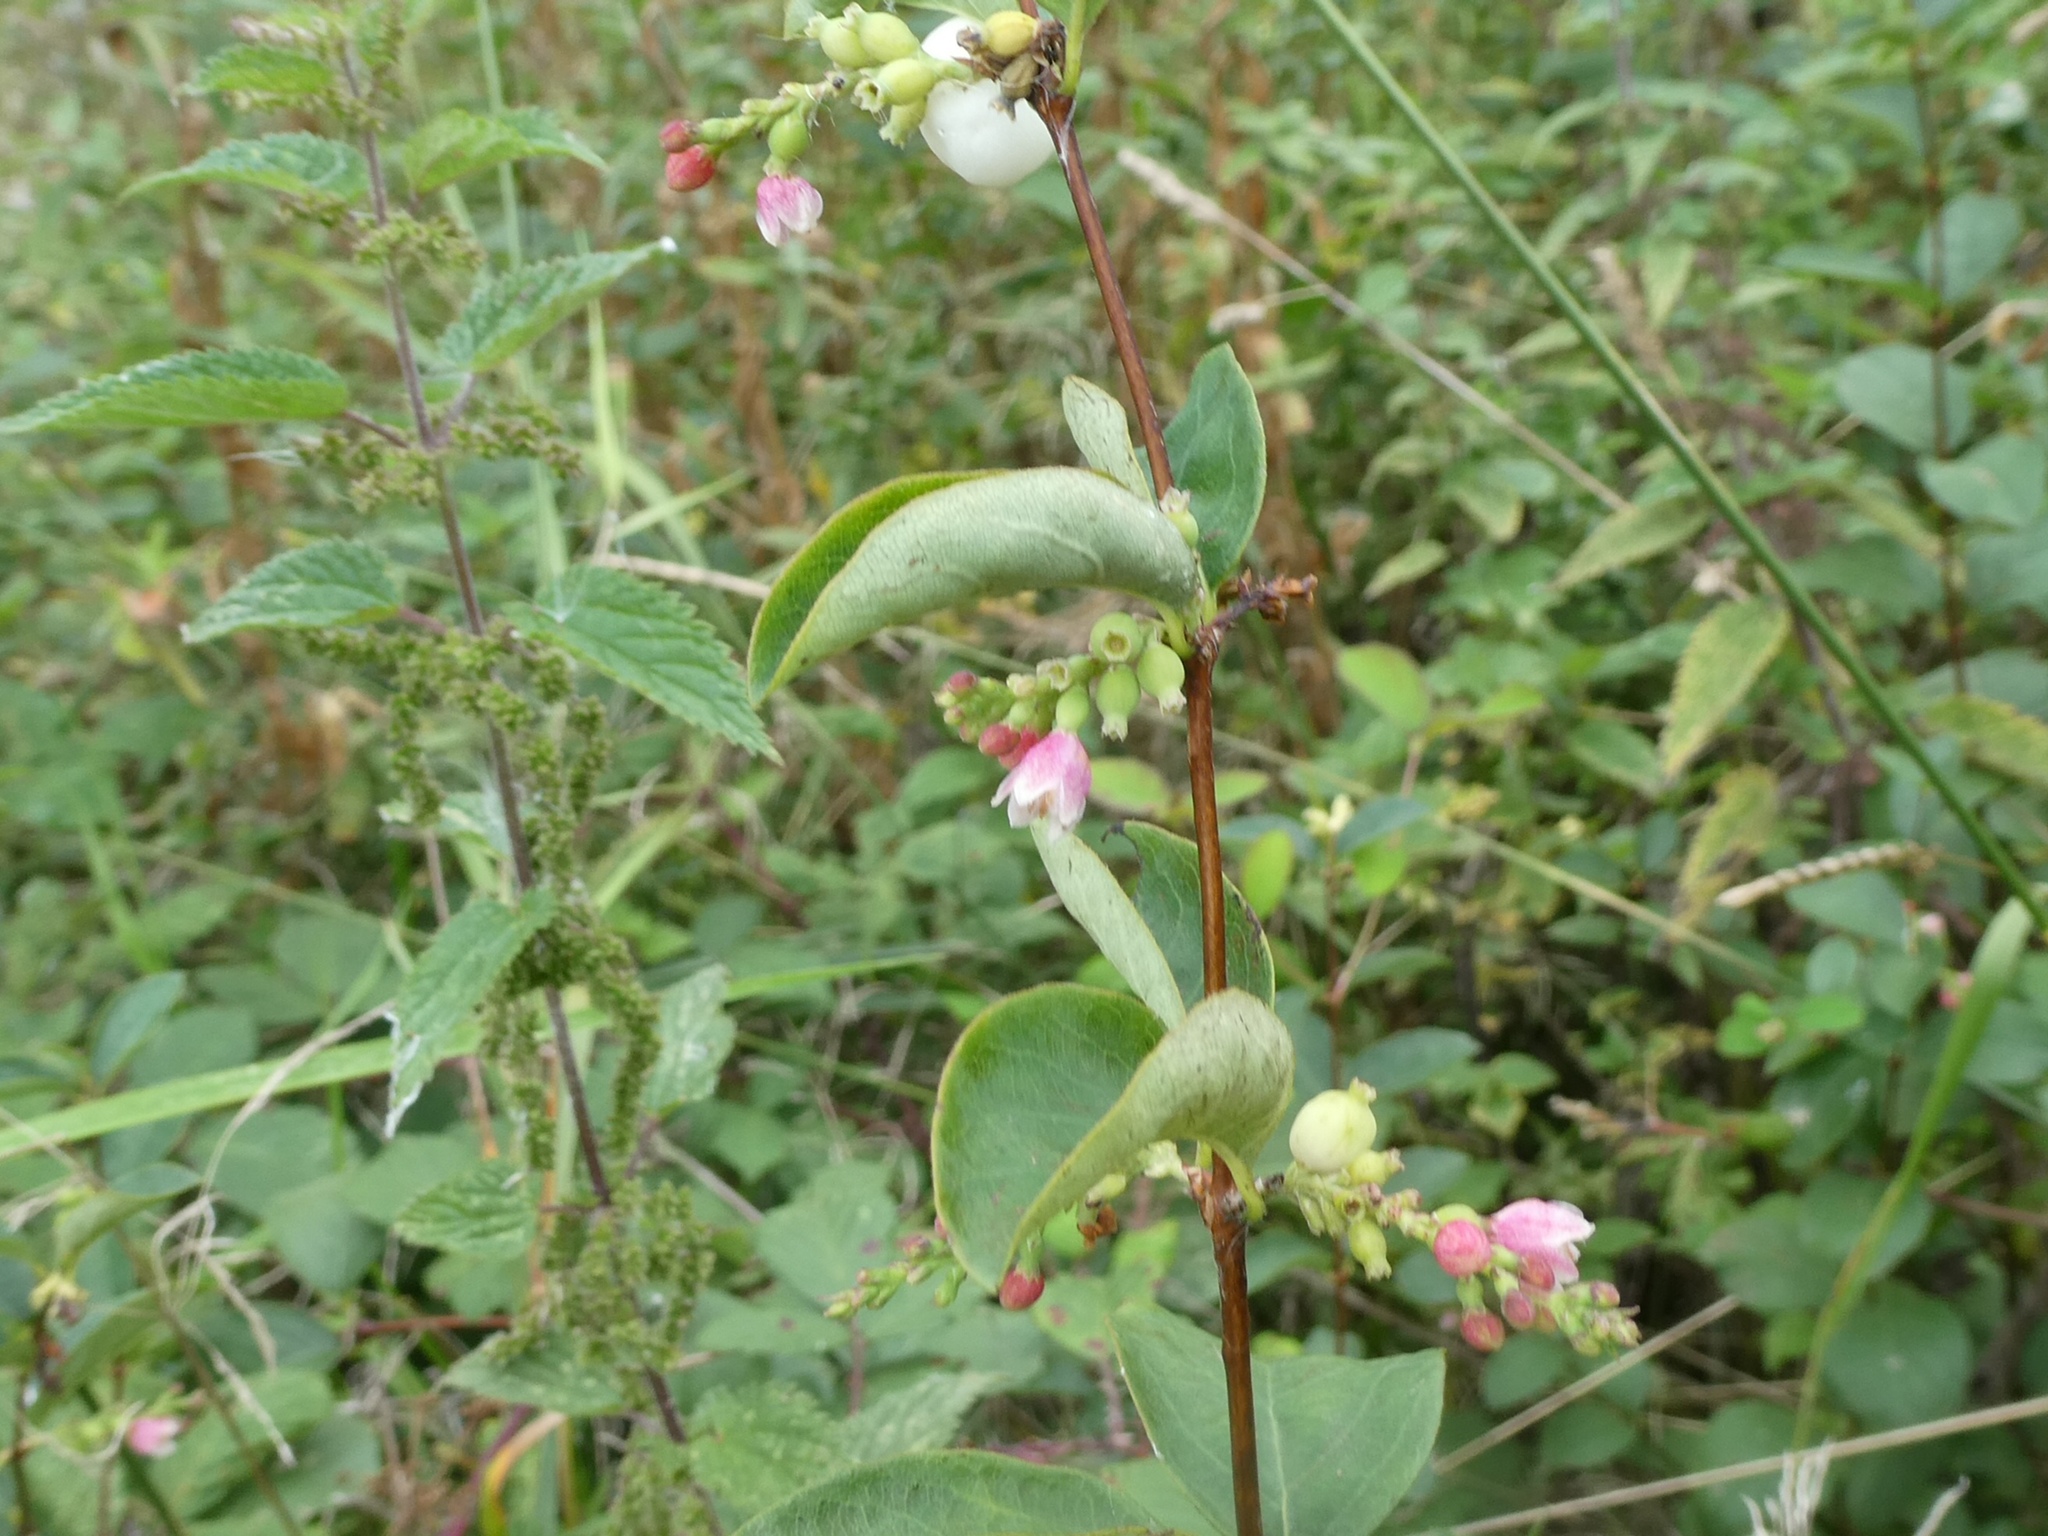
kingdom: Plantae
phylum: Tracheophyta
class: Magnoliopsida
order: Dipsacales
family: Caprifoliaceae
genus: Symphoricarpos
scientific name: Symphoricarpos albus
